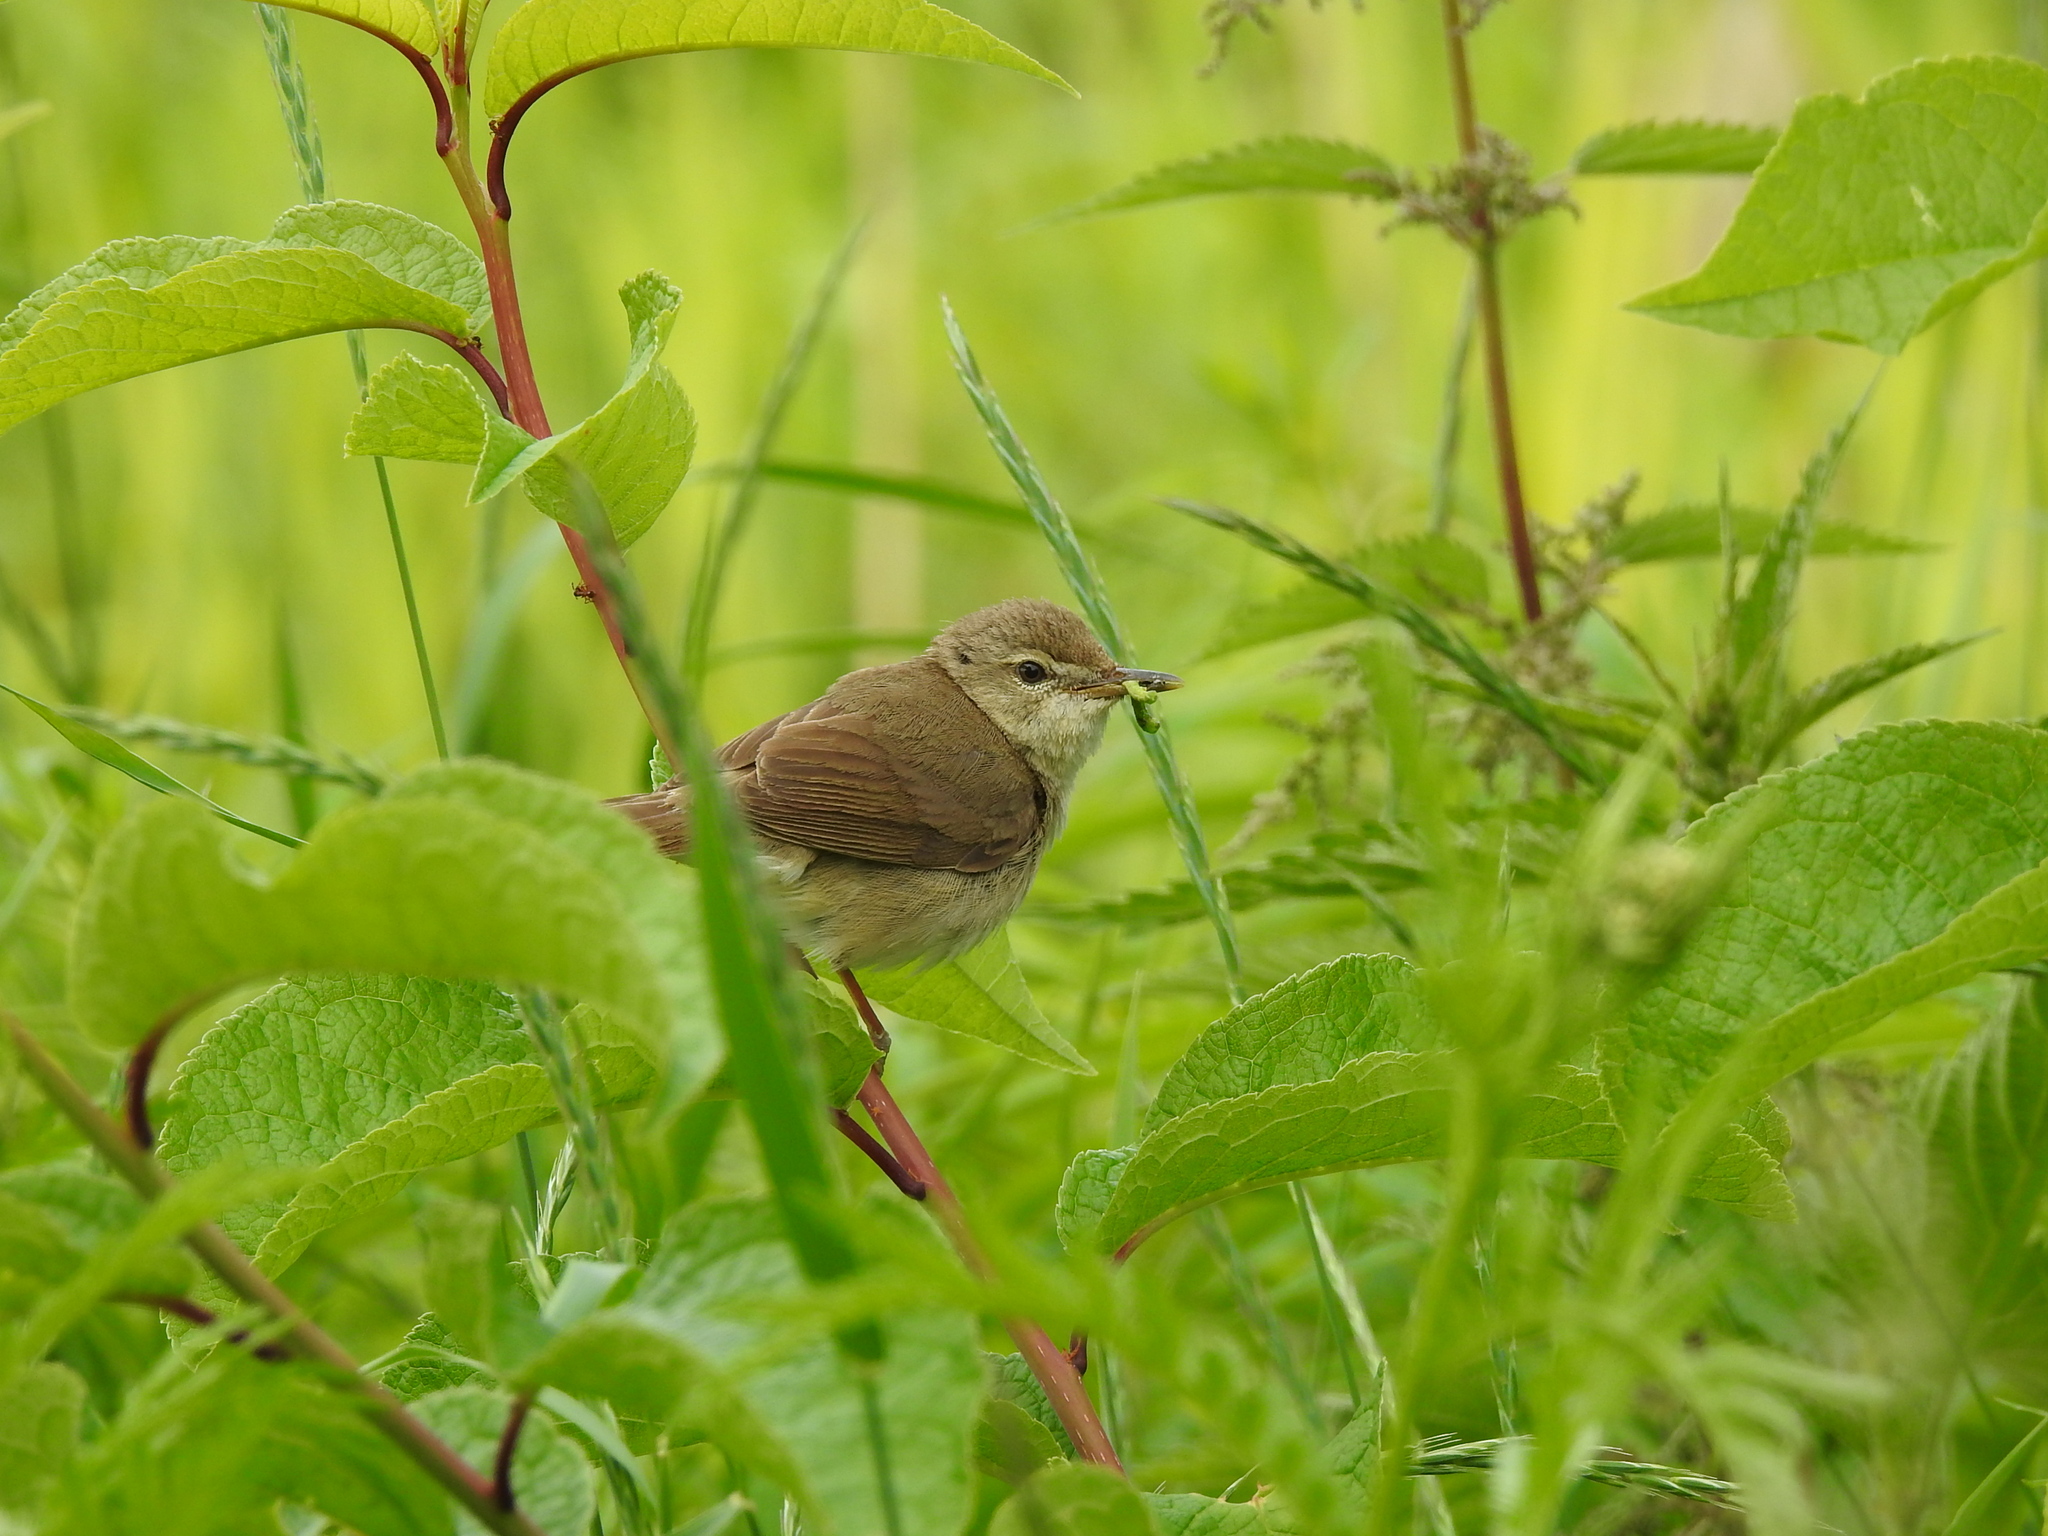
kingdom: Animalia
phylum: Chordata
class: Aves
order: Passeriformes
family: Acrocephalidae
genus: Acrocephalus
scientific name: Acrocephalus dumetorum
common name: Blyth's reed warbler
